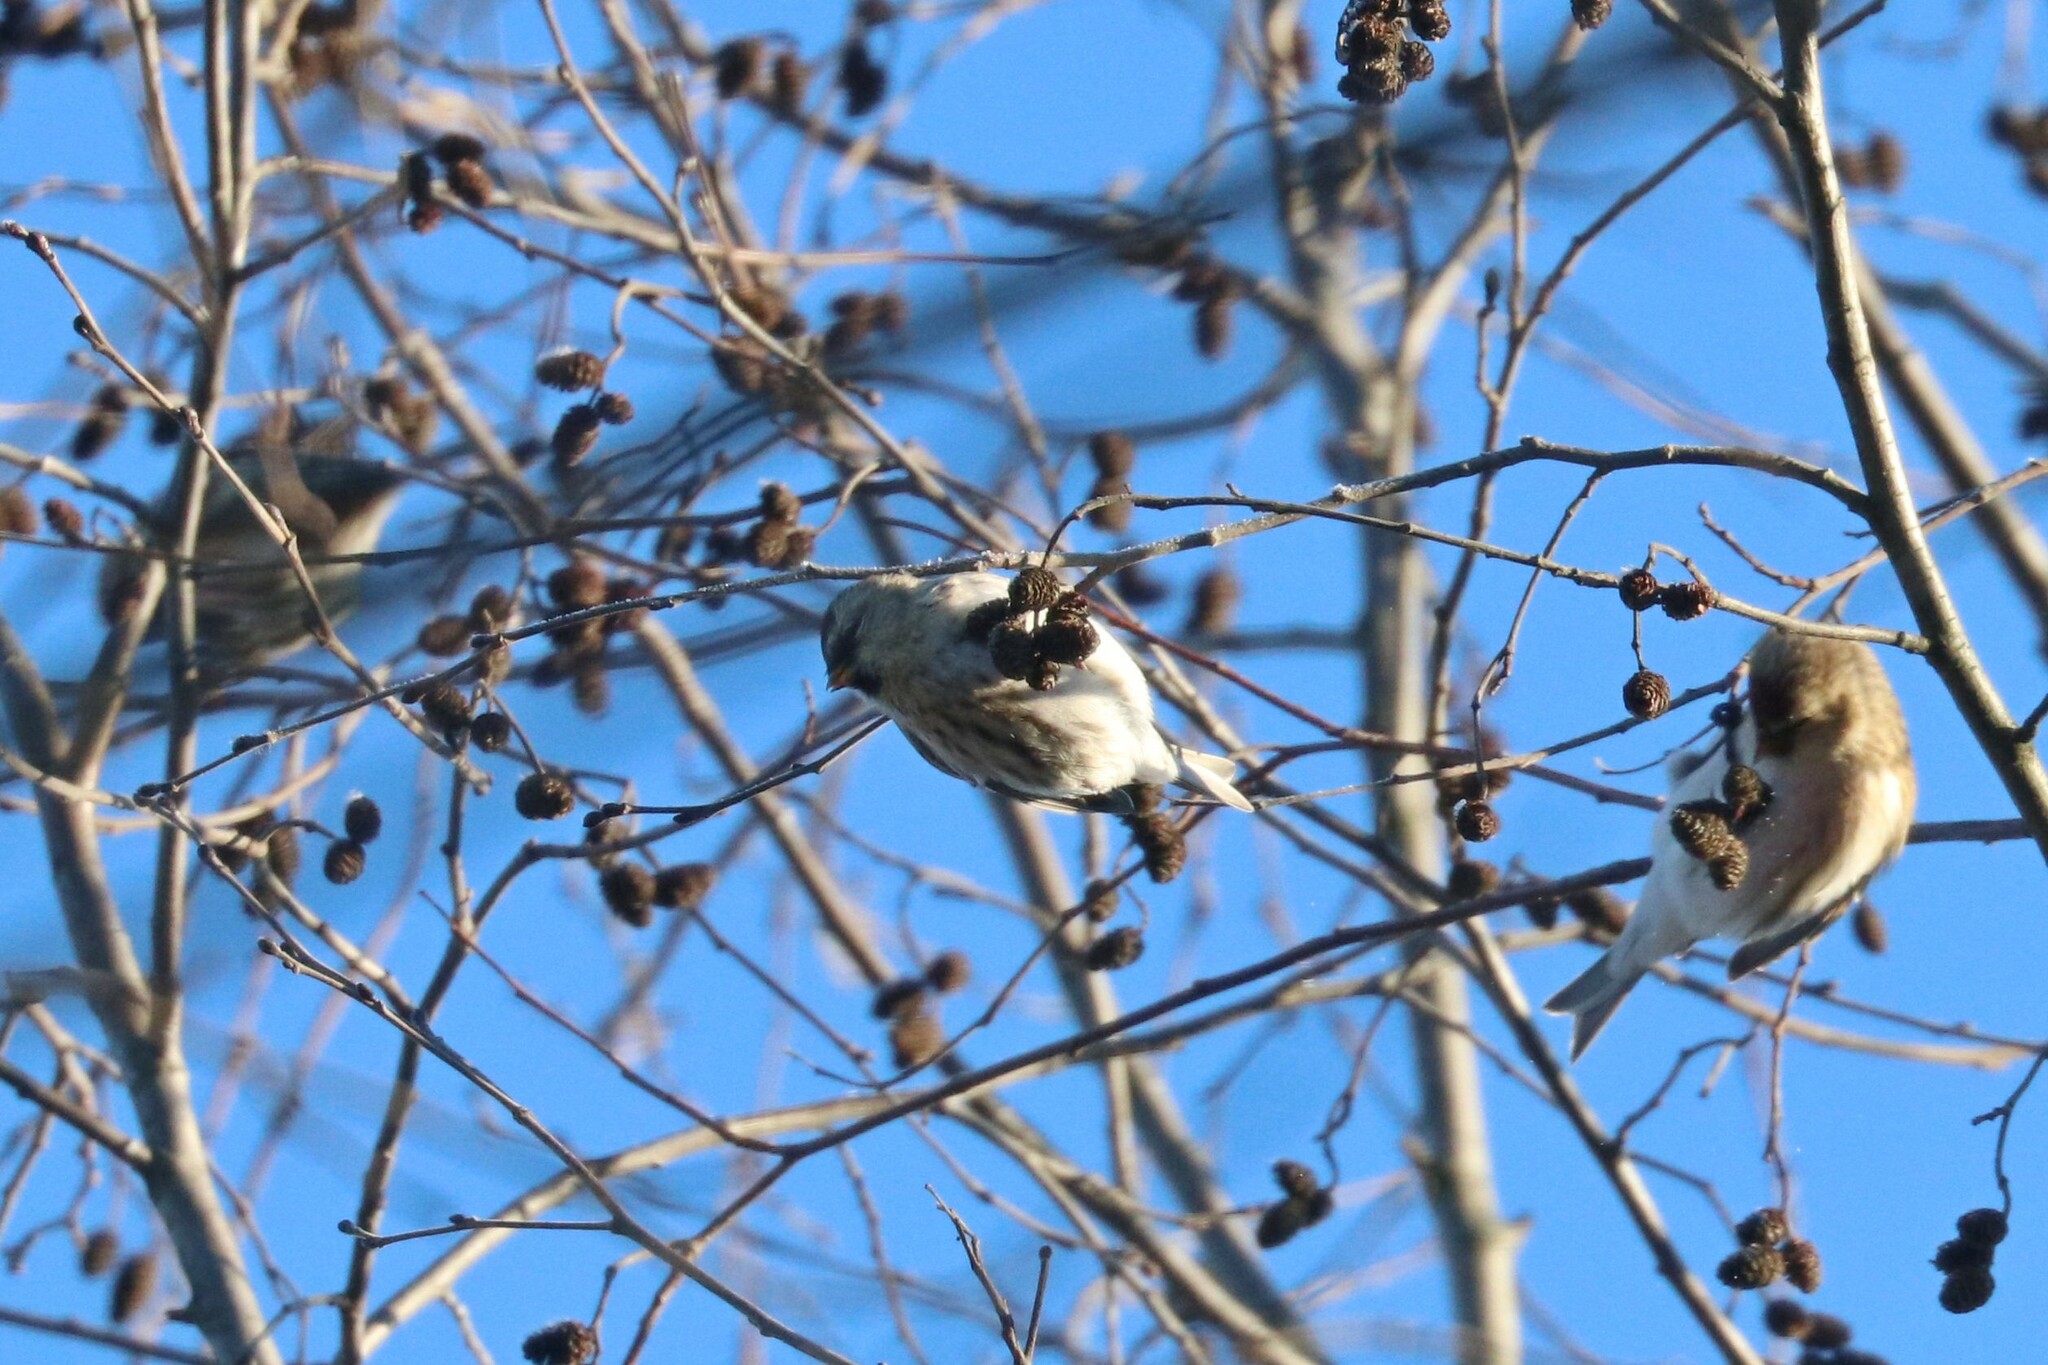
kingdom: Animalia
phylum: Chordata
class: Aves
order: Passeriformes
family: Fringillidae
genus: Acanthis
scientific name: Acanthis flammea
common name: Common redpoll
